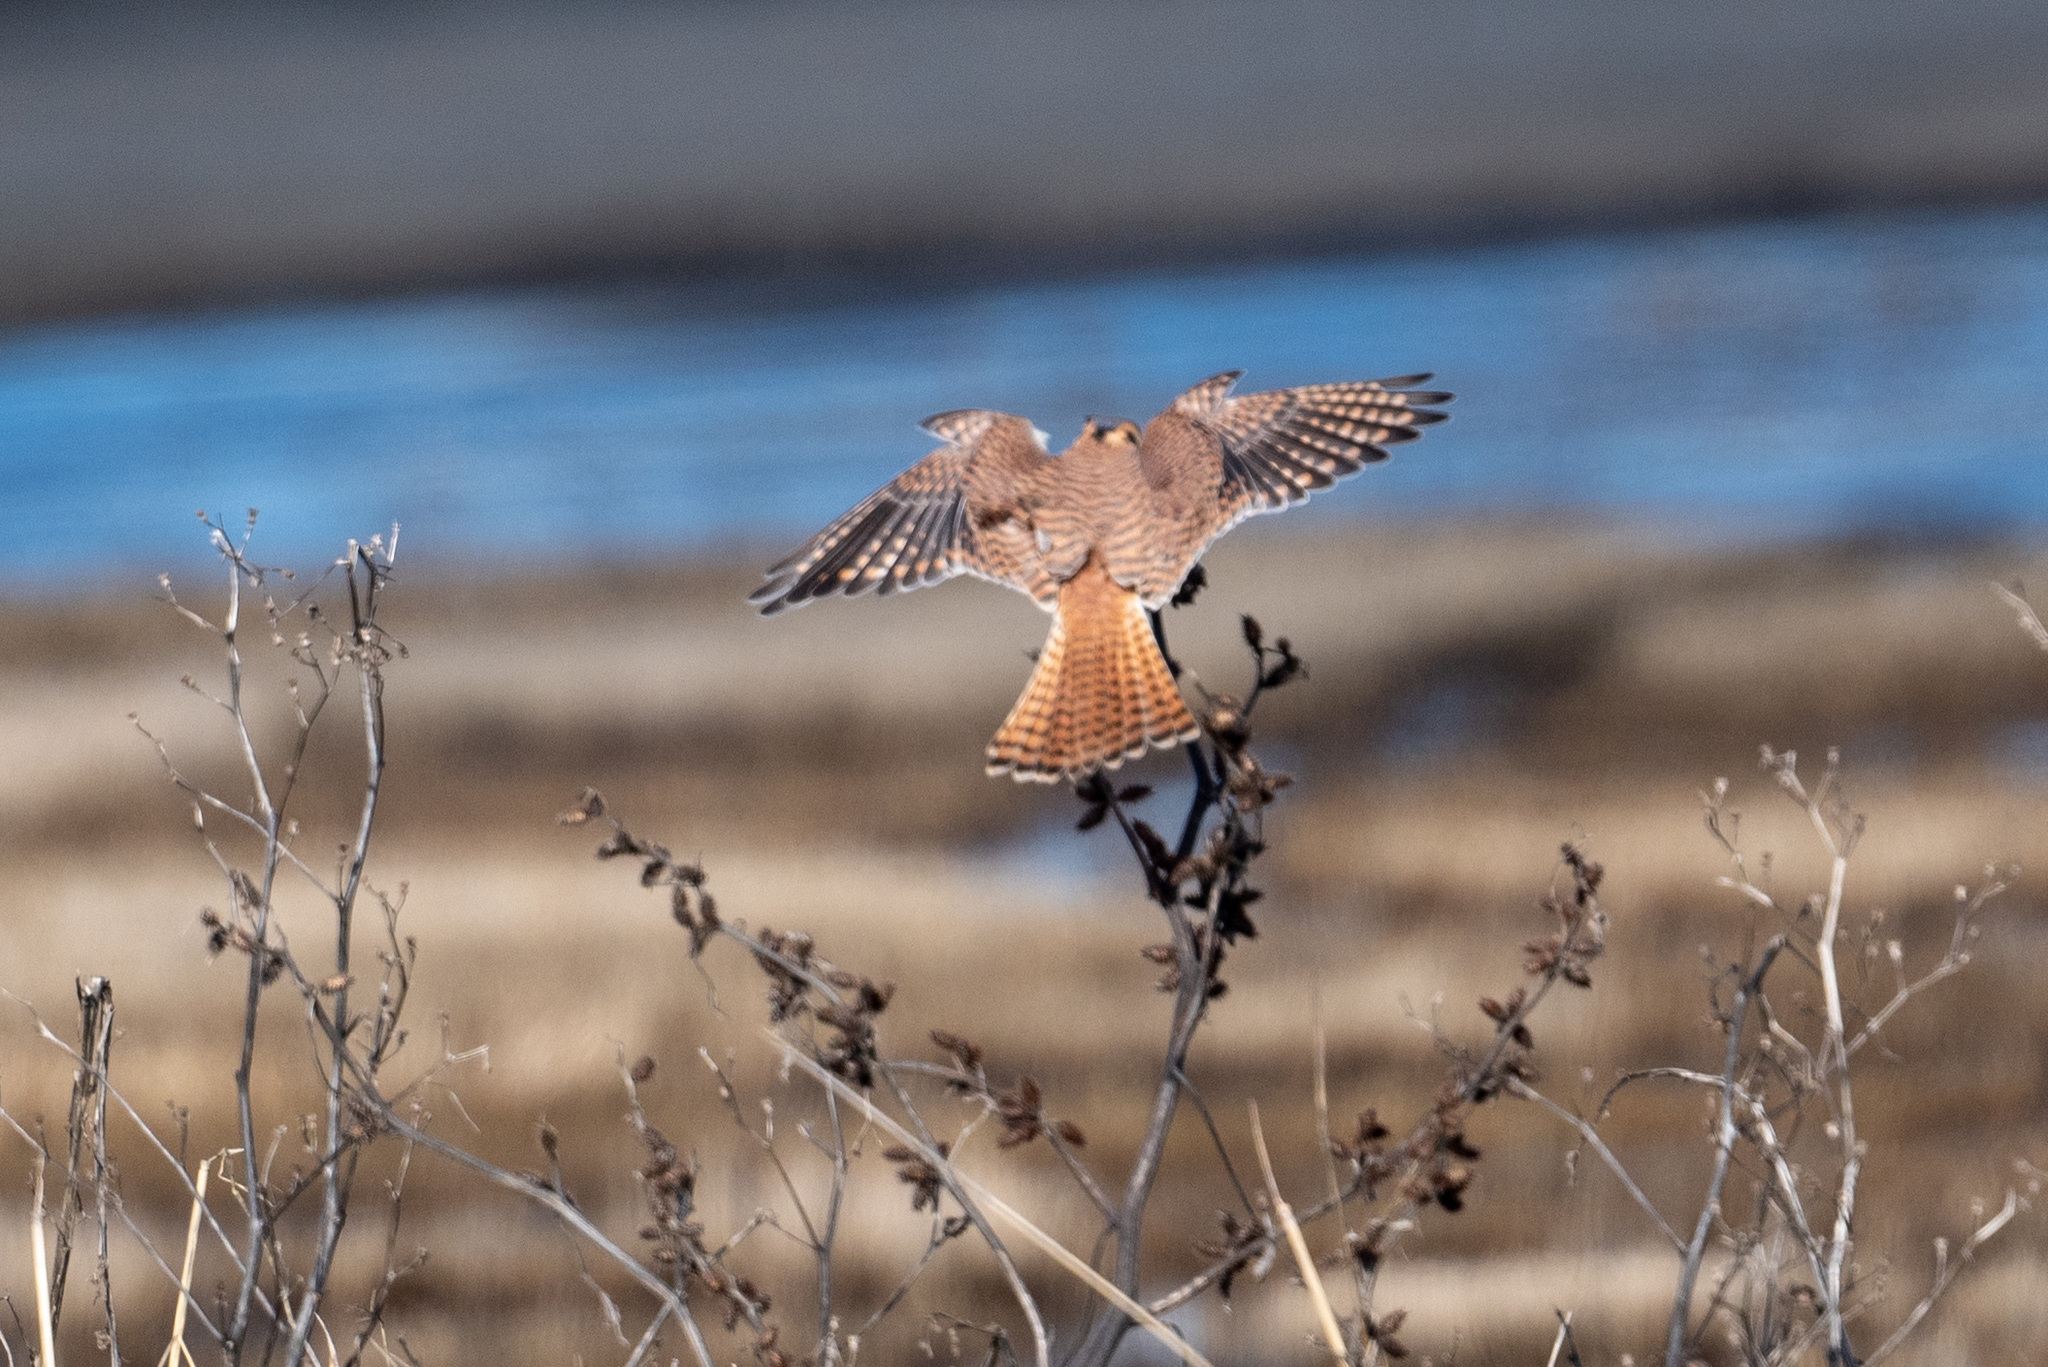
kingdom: Animalia
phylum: Chordata
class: Aves
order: Falconiformes
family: Falconidae
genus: Falco
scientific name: Falco sparverius
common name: American kestrel
